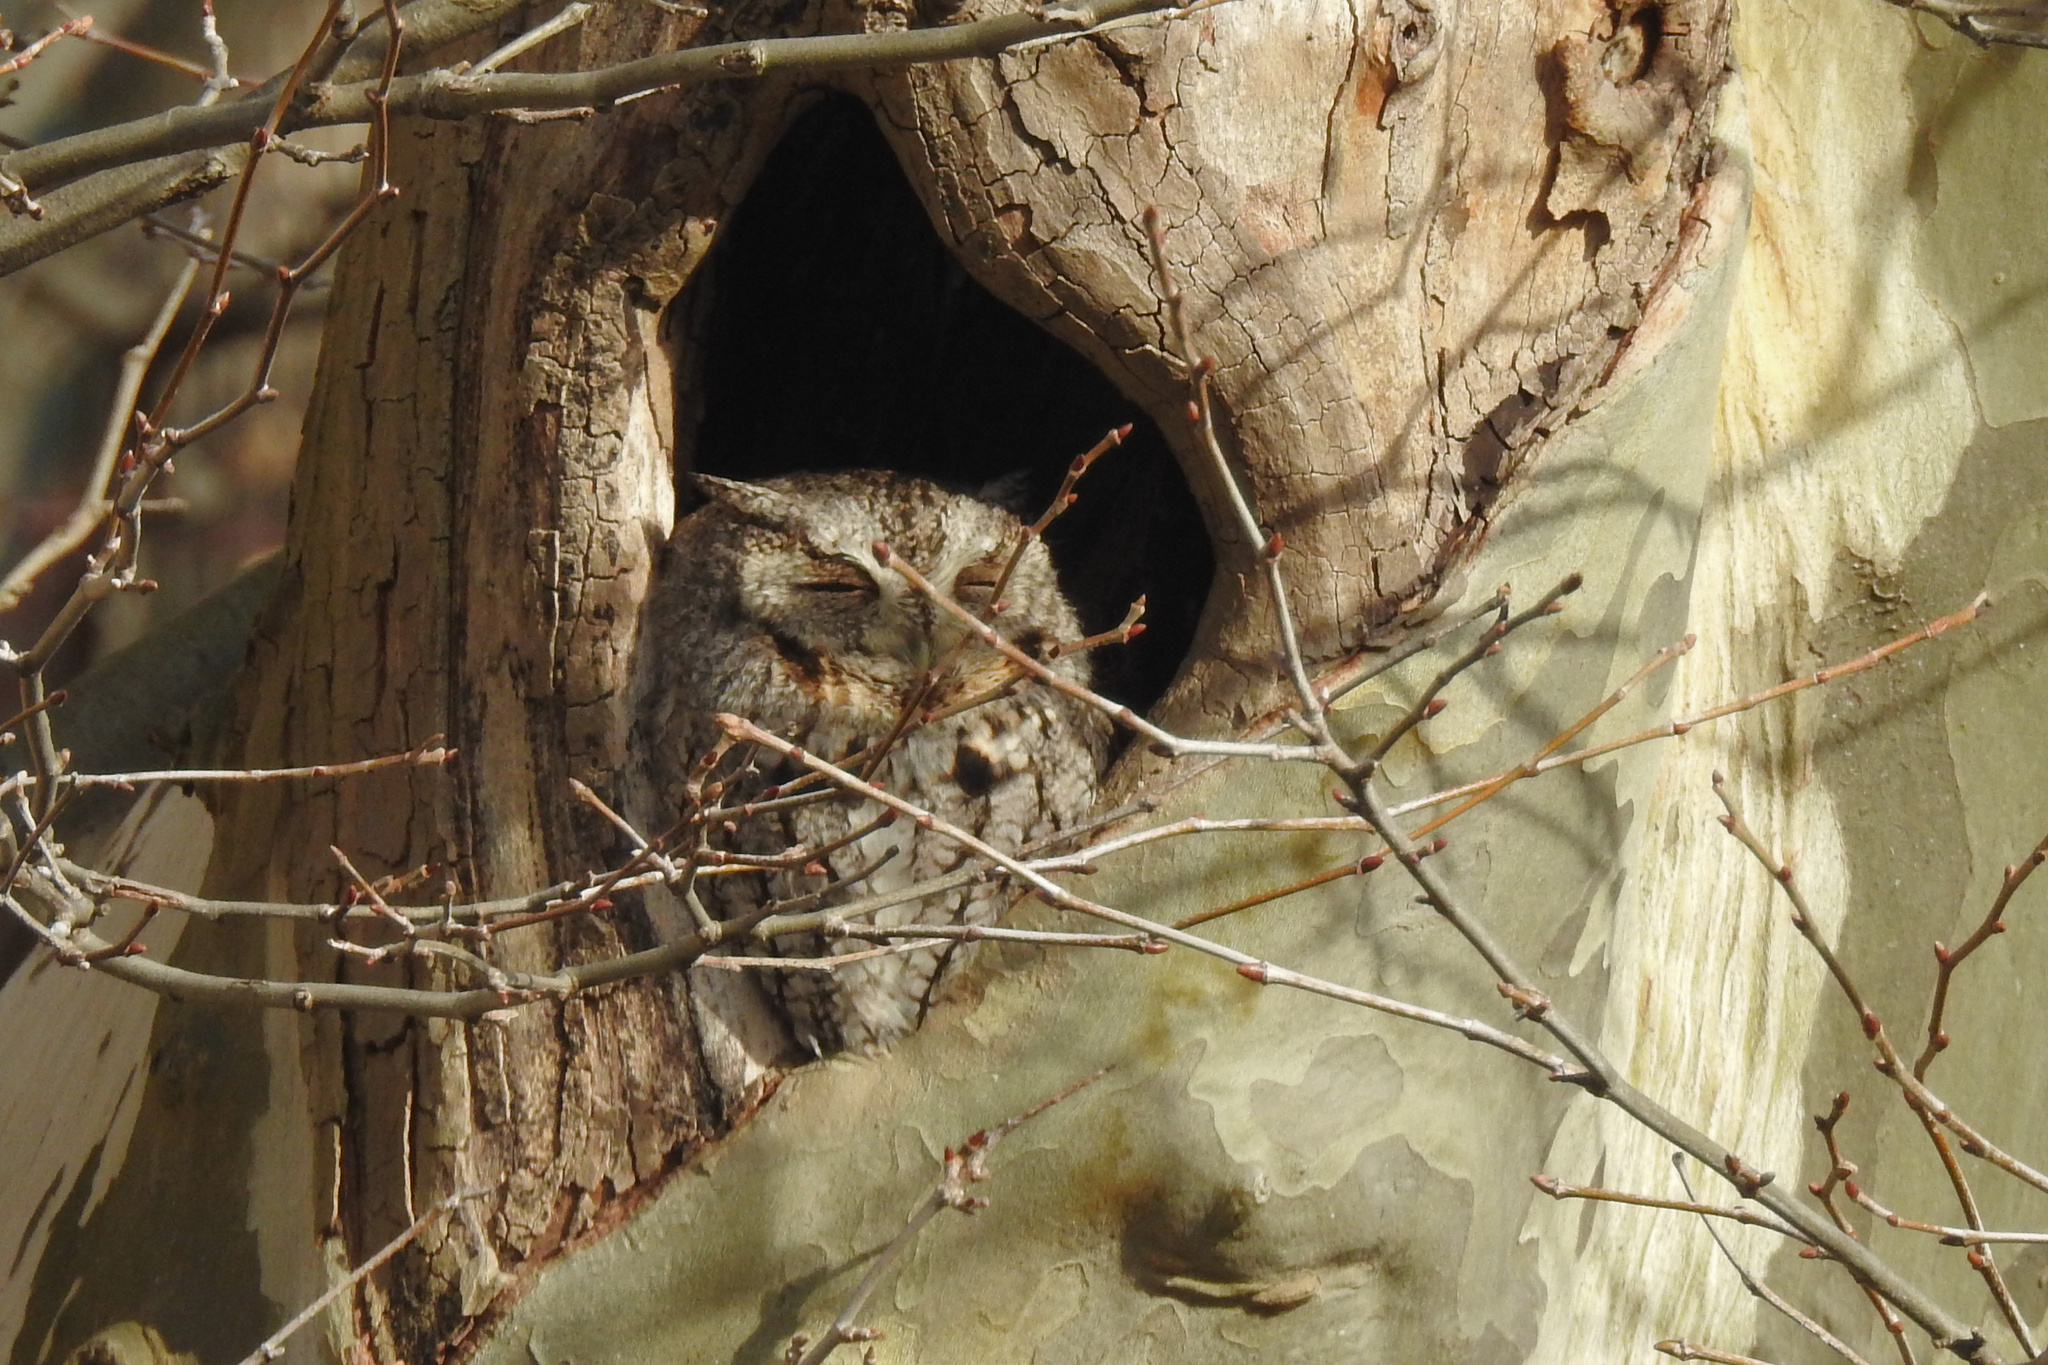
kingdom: Animalia
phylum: Chordata
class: Aves
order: Strigiformes
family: Strigidae
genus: Megascops
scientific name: Megascops asio
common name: Eastern screech-owl
